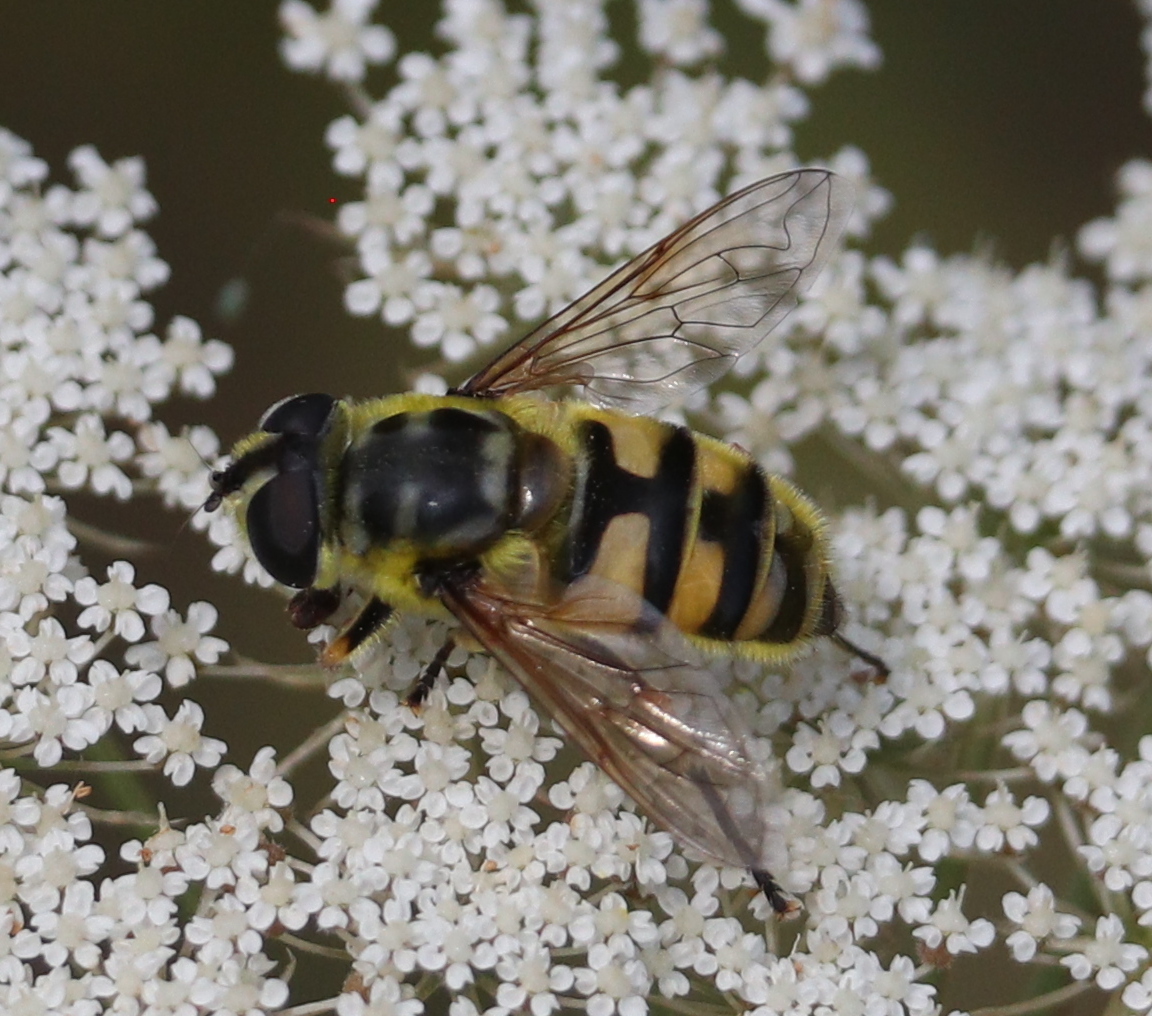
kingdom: Animalia
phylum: Arthropoda
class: Insecta
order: Diptera
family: Syrphidae
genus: Myathropa
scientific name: Myathropa florea
